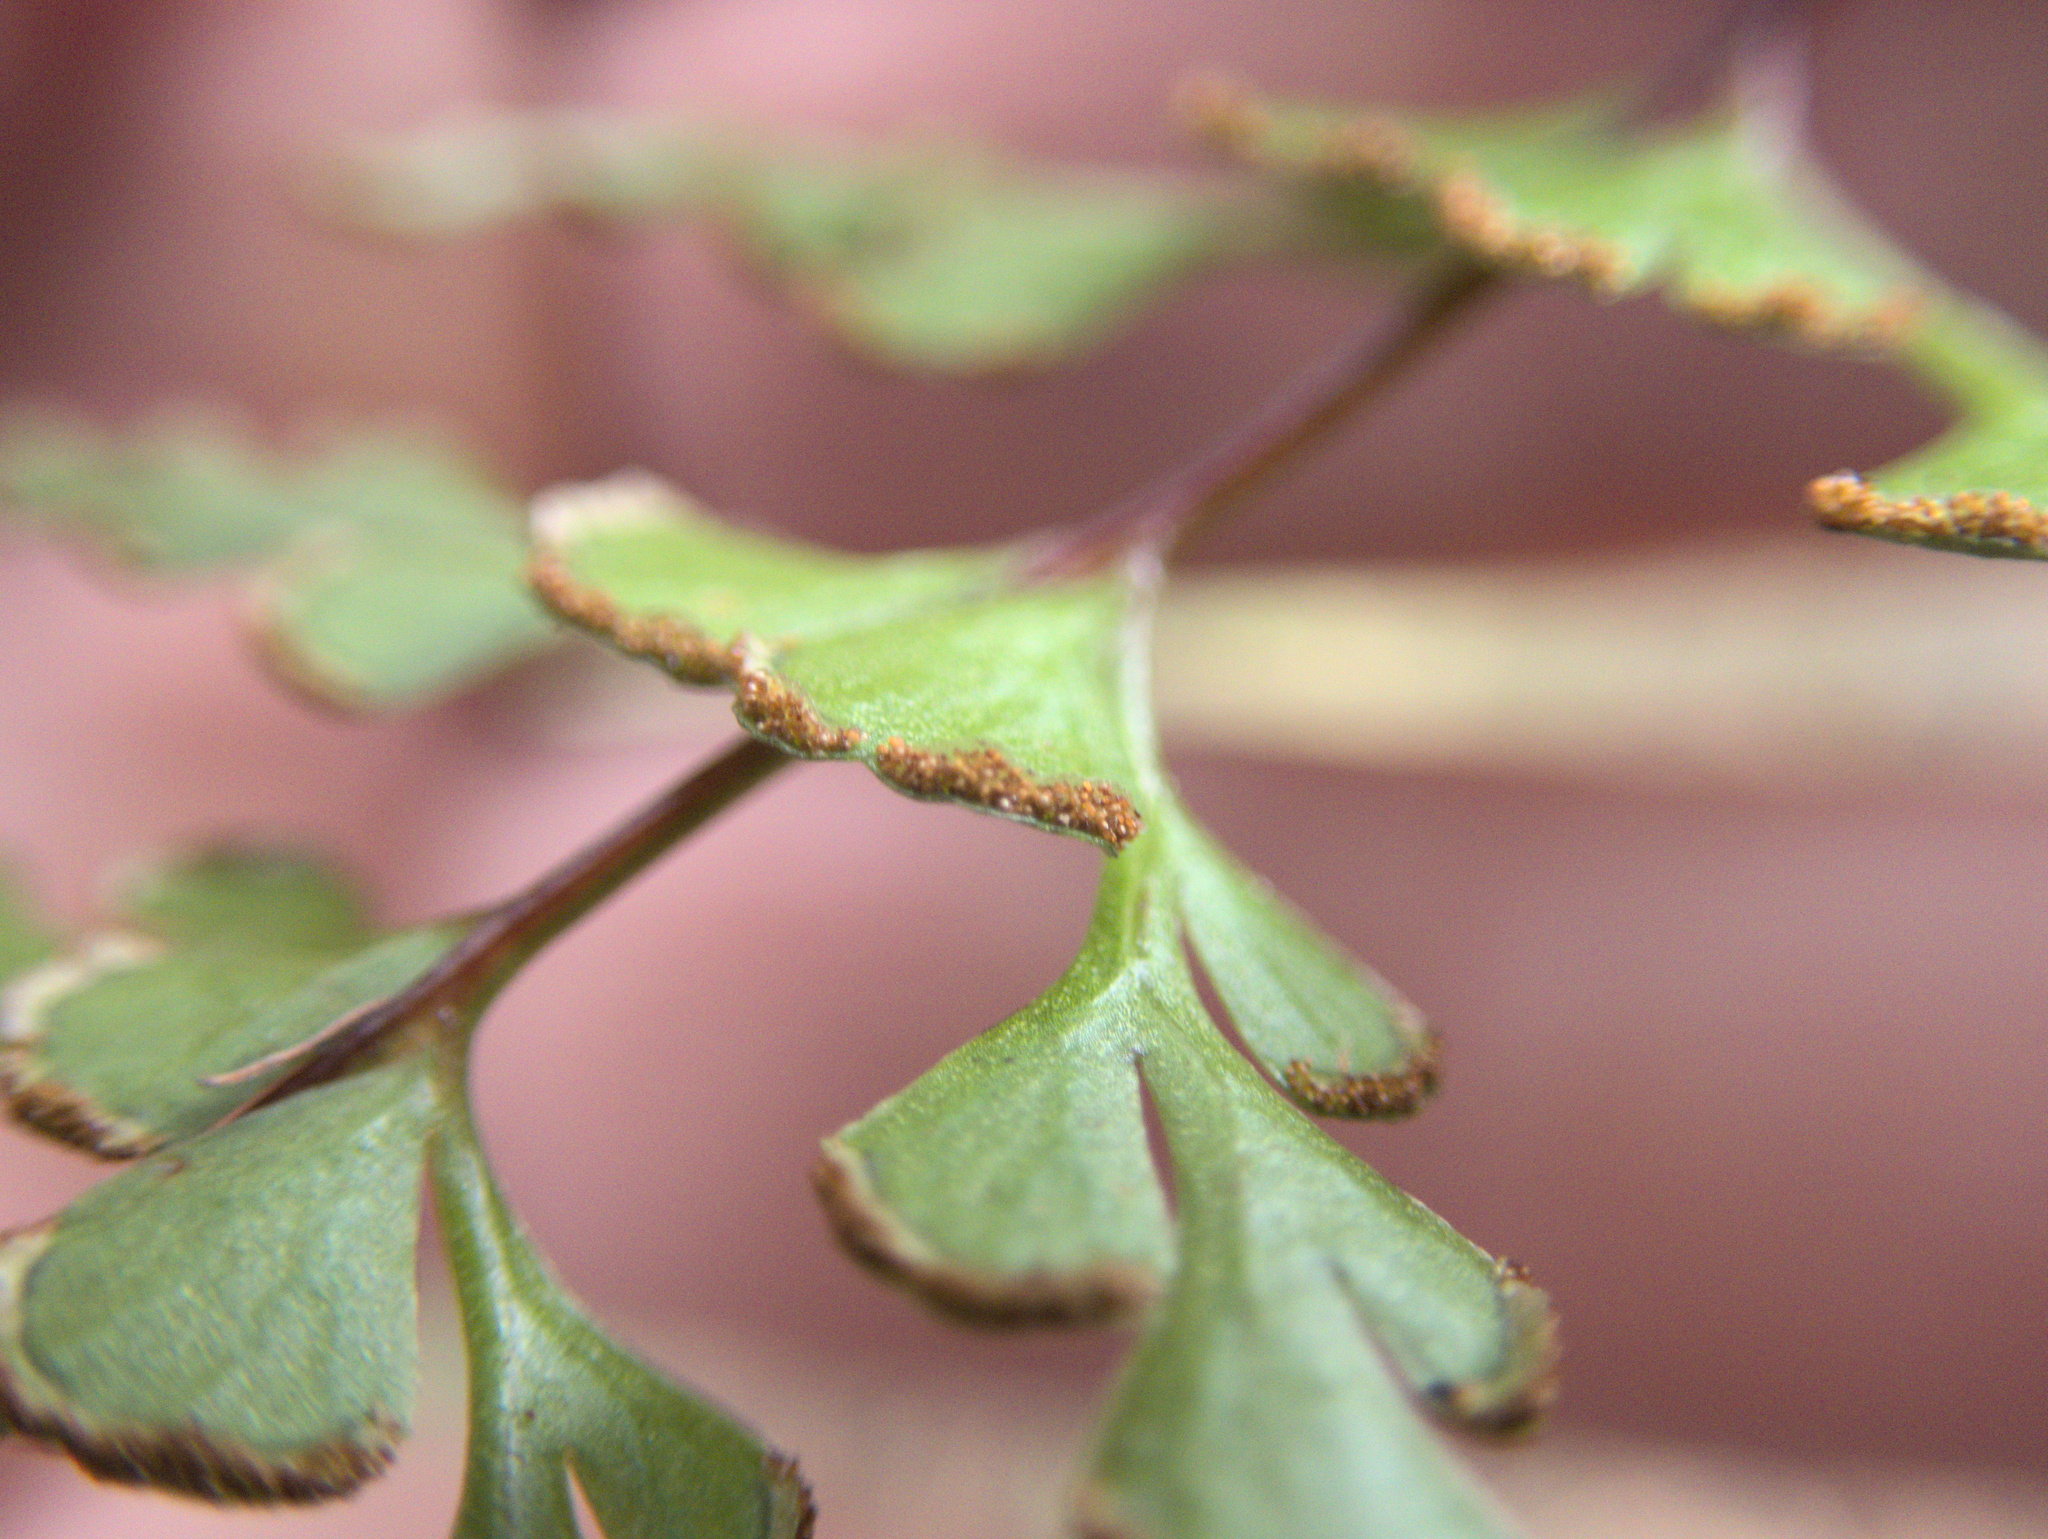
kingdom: Plantae
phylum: Tracheophyta
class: Polypodiopsida
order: Polypodiales
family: Lindsaeaceae
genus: Lindsaea
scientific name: Lindsaea trichomanoides
